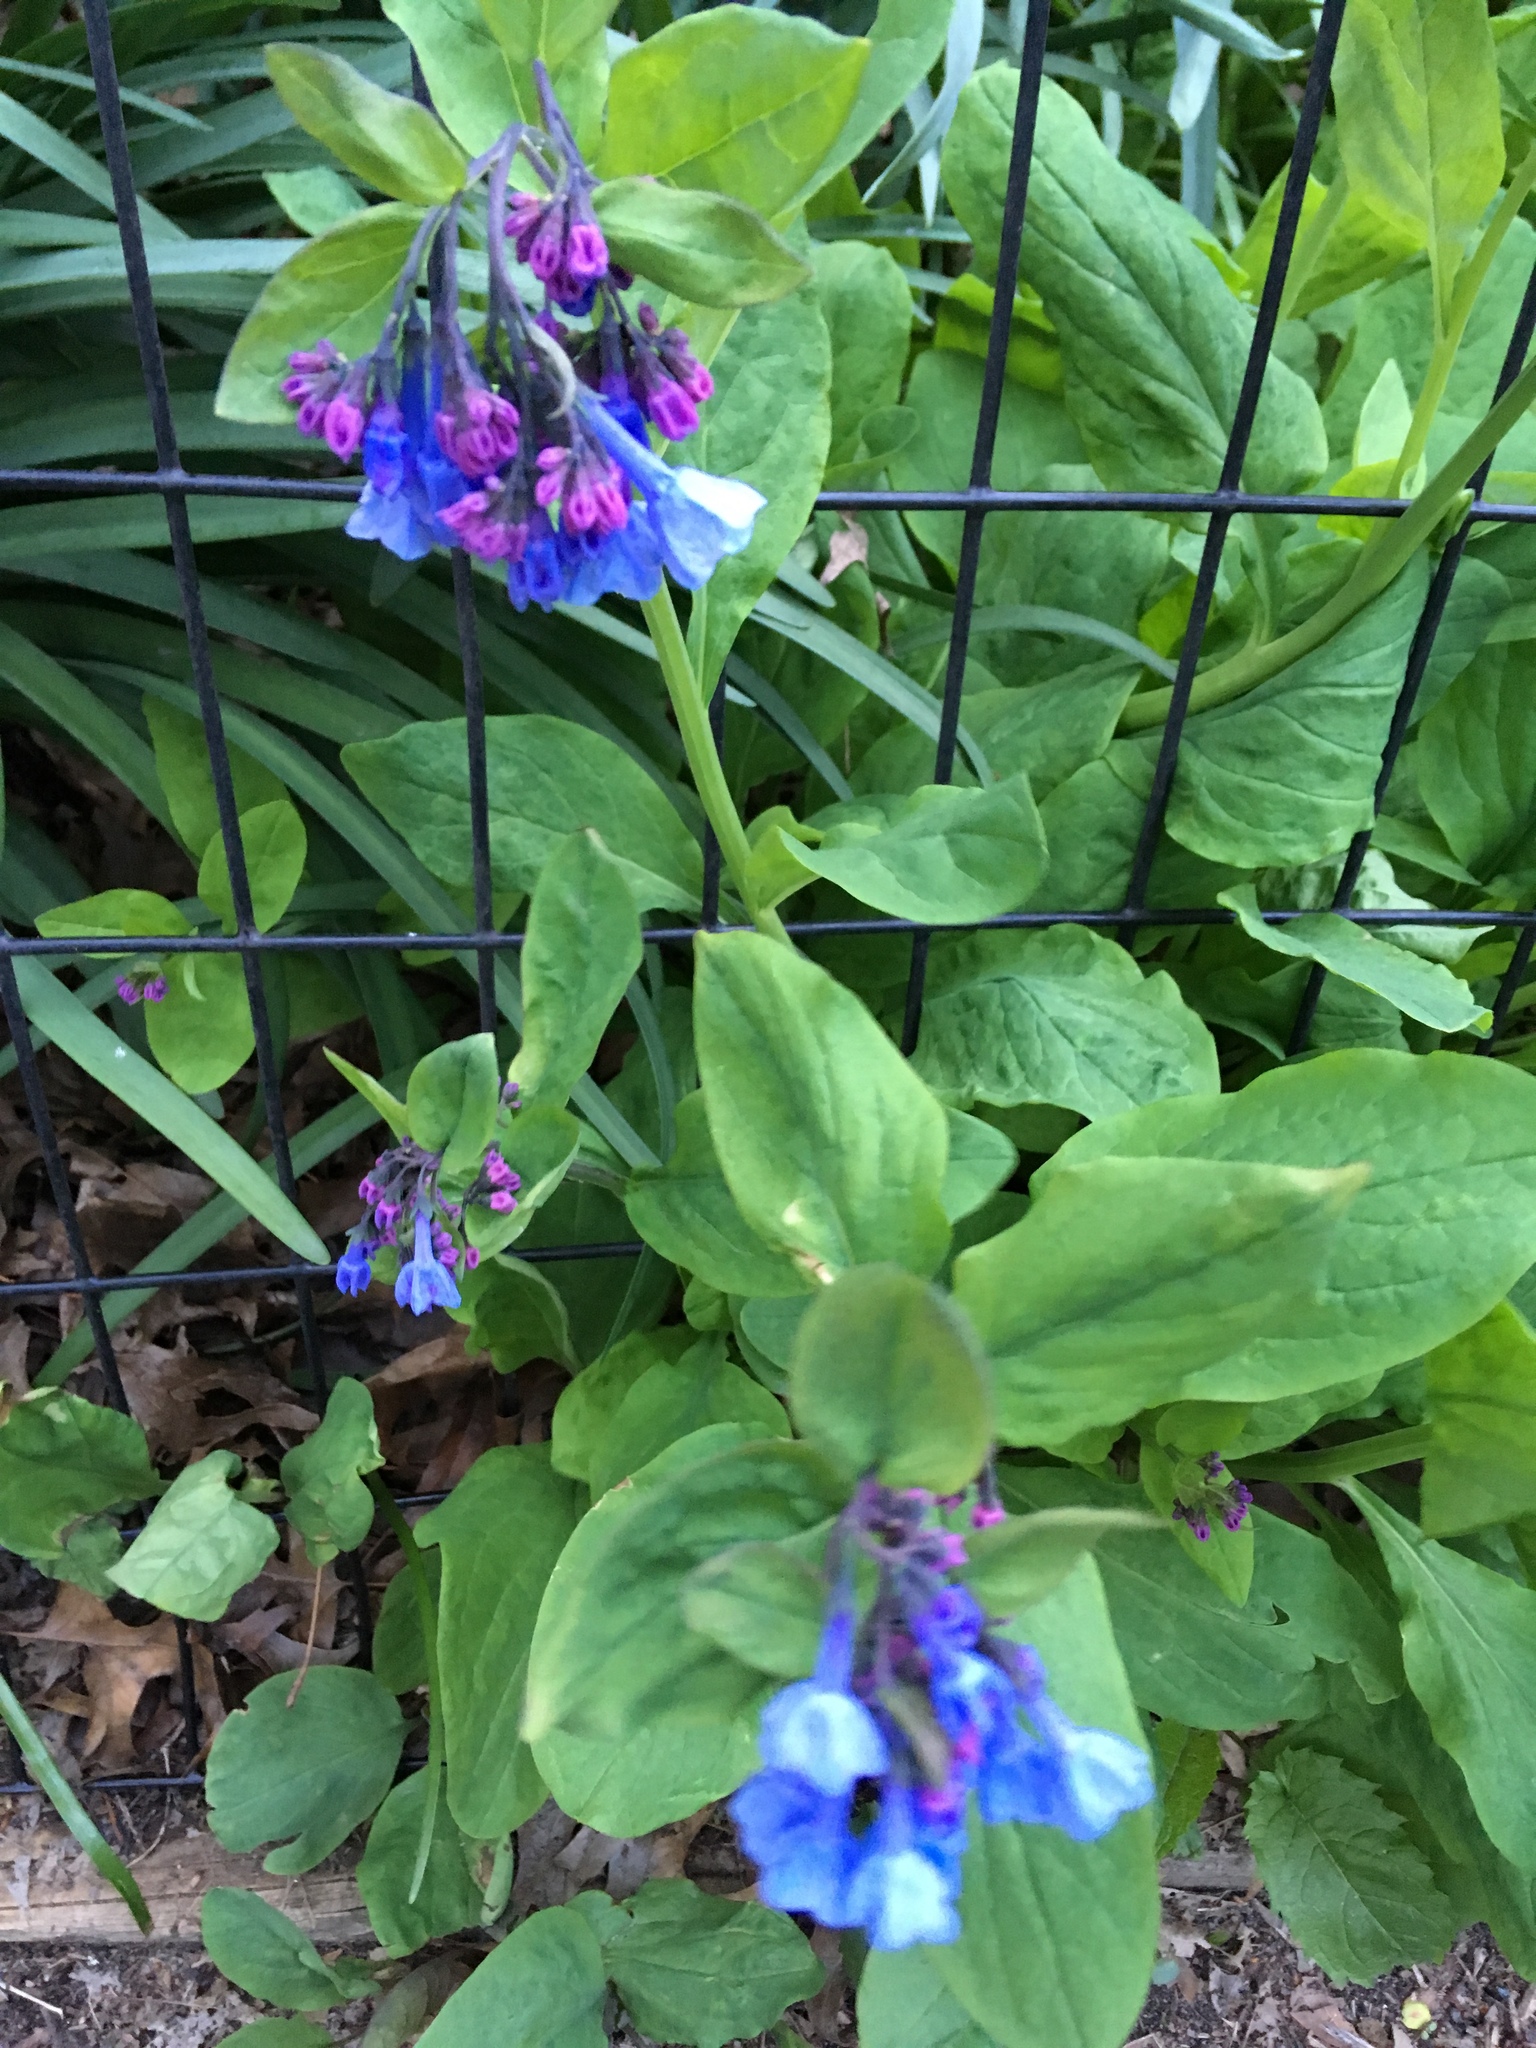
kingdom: Plantae
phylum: Tracheophyta
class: Magnoliopsida
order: Boraginales
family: Boraginaceae
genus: Mertensia
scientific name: Mertensia virginica
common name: Virginia bluebells
